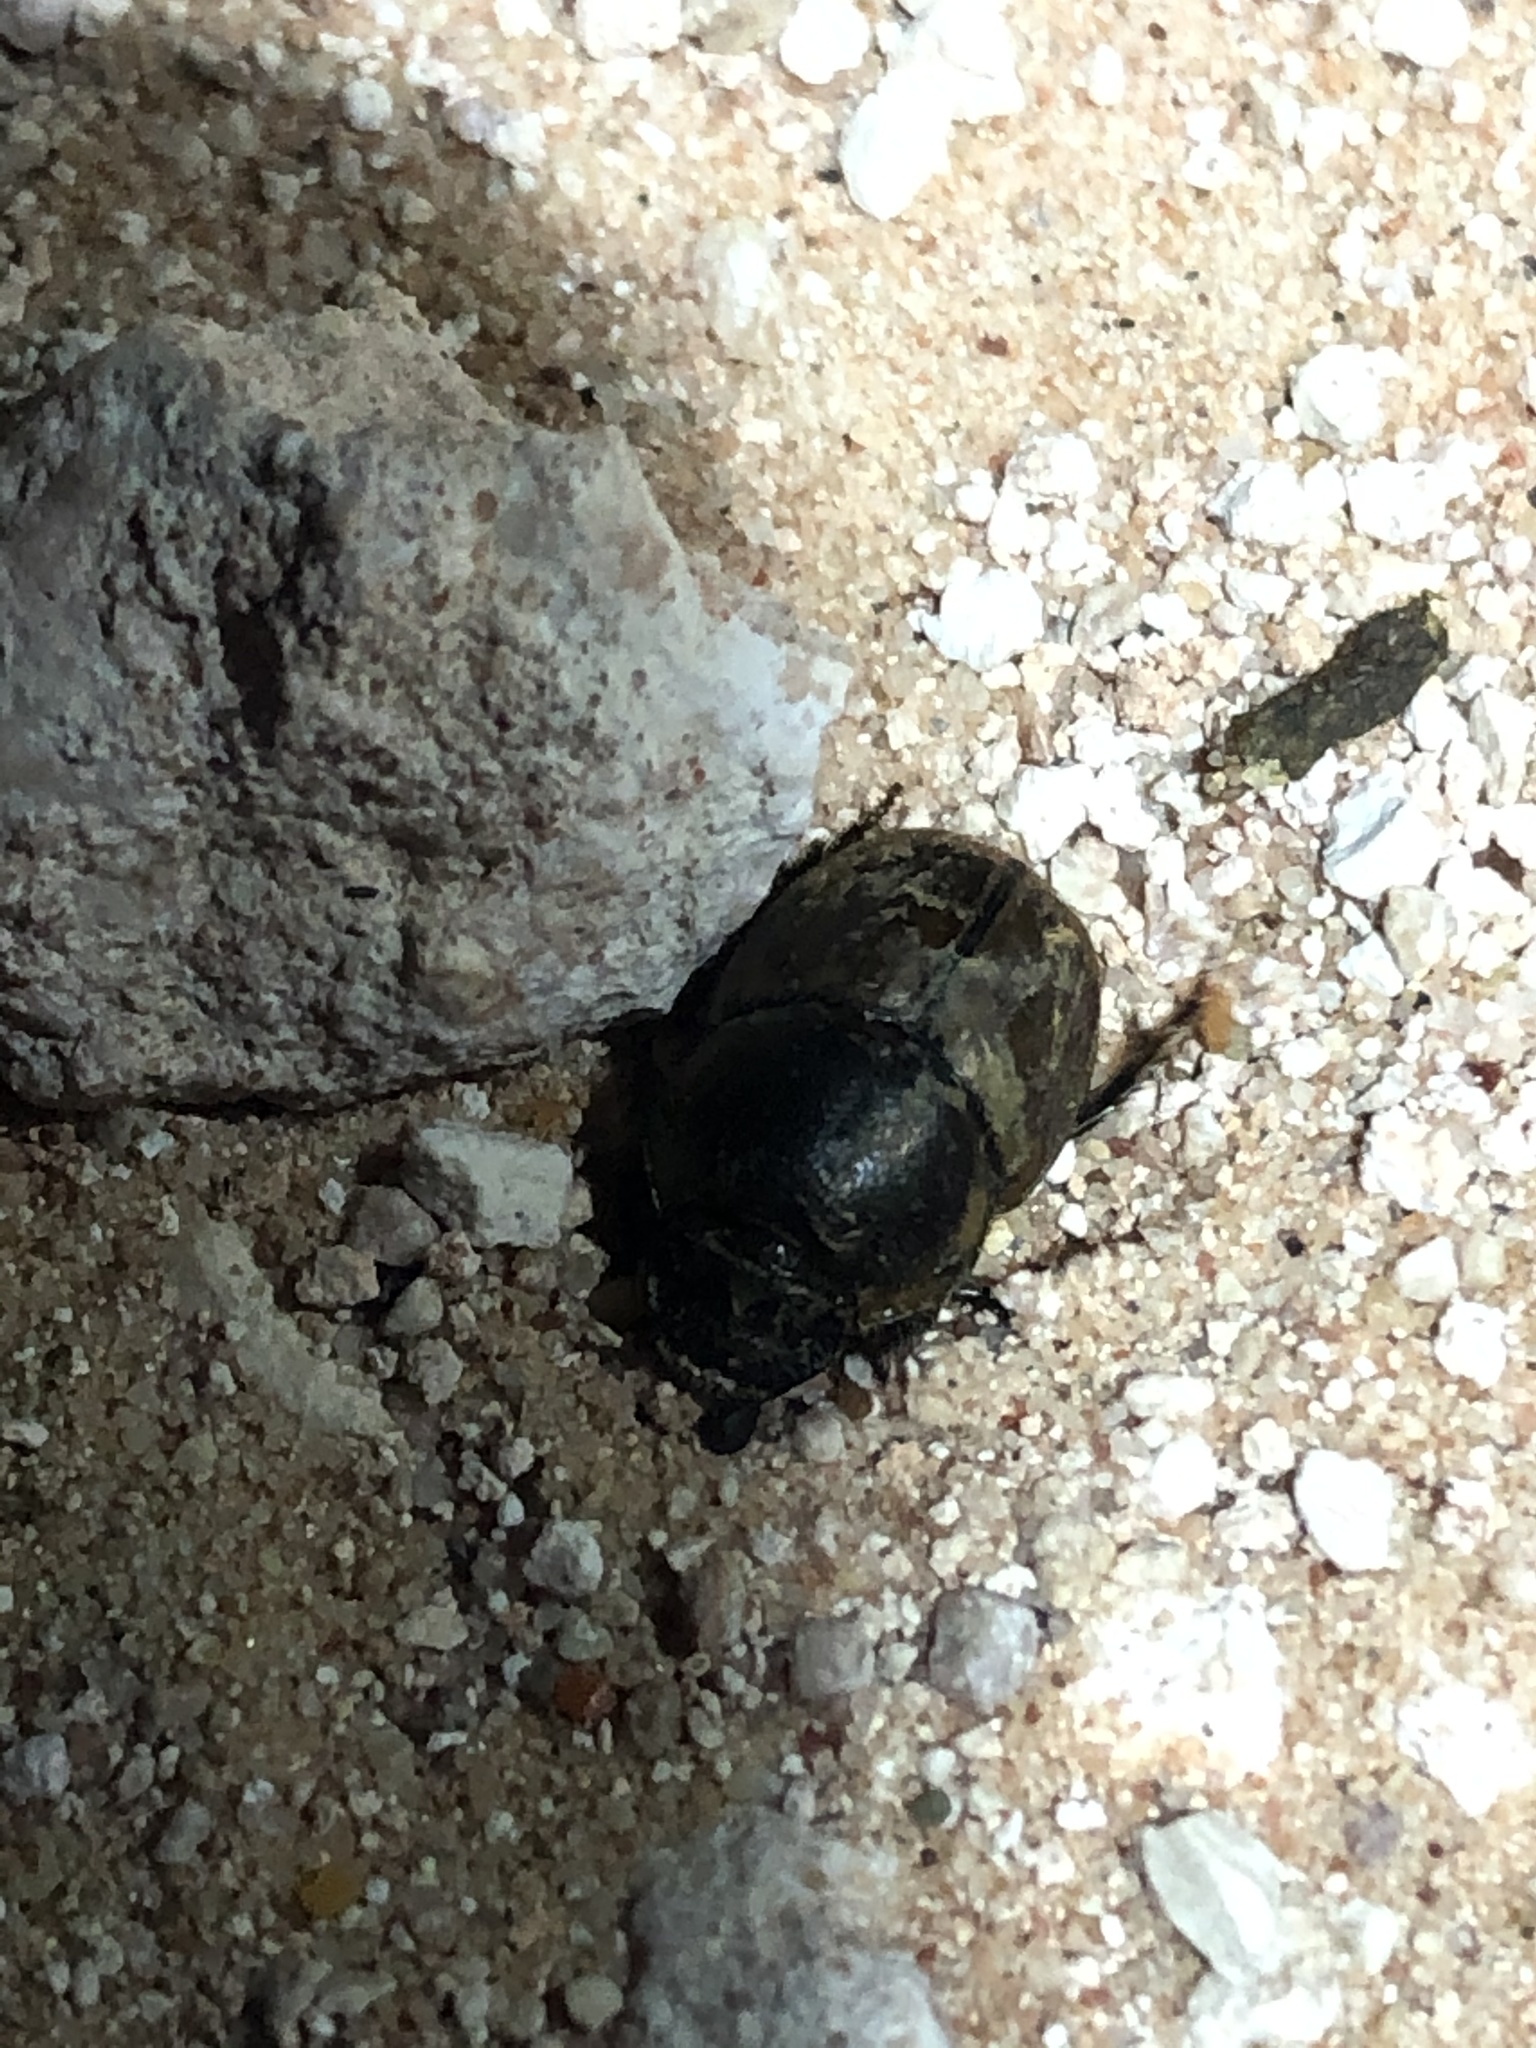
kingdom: Animalia
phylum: Arthropoda
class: Insecta
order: Coleoptera
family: Scarabaeidae
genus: Digitonthophagus
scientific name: Digitonthophagus gazella
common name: Brown dung beetle
